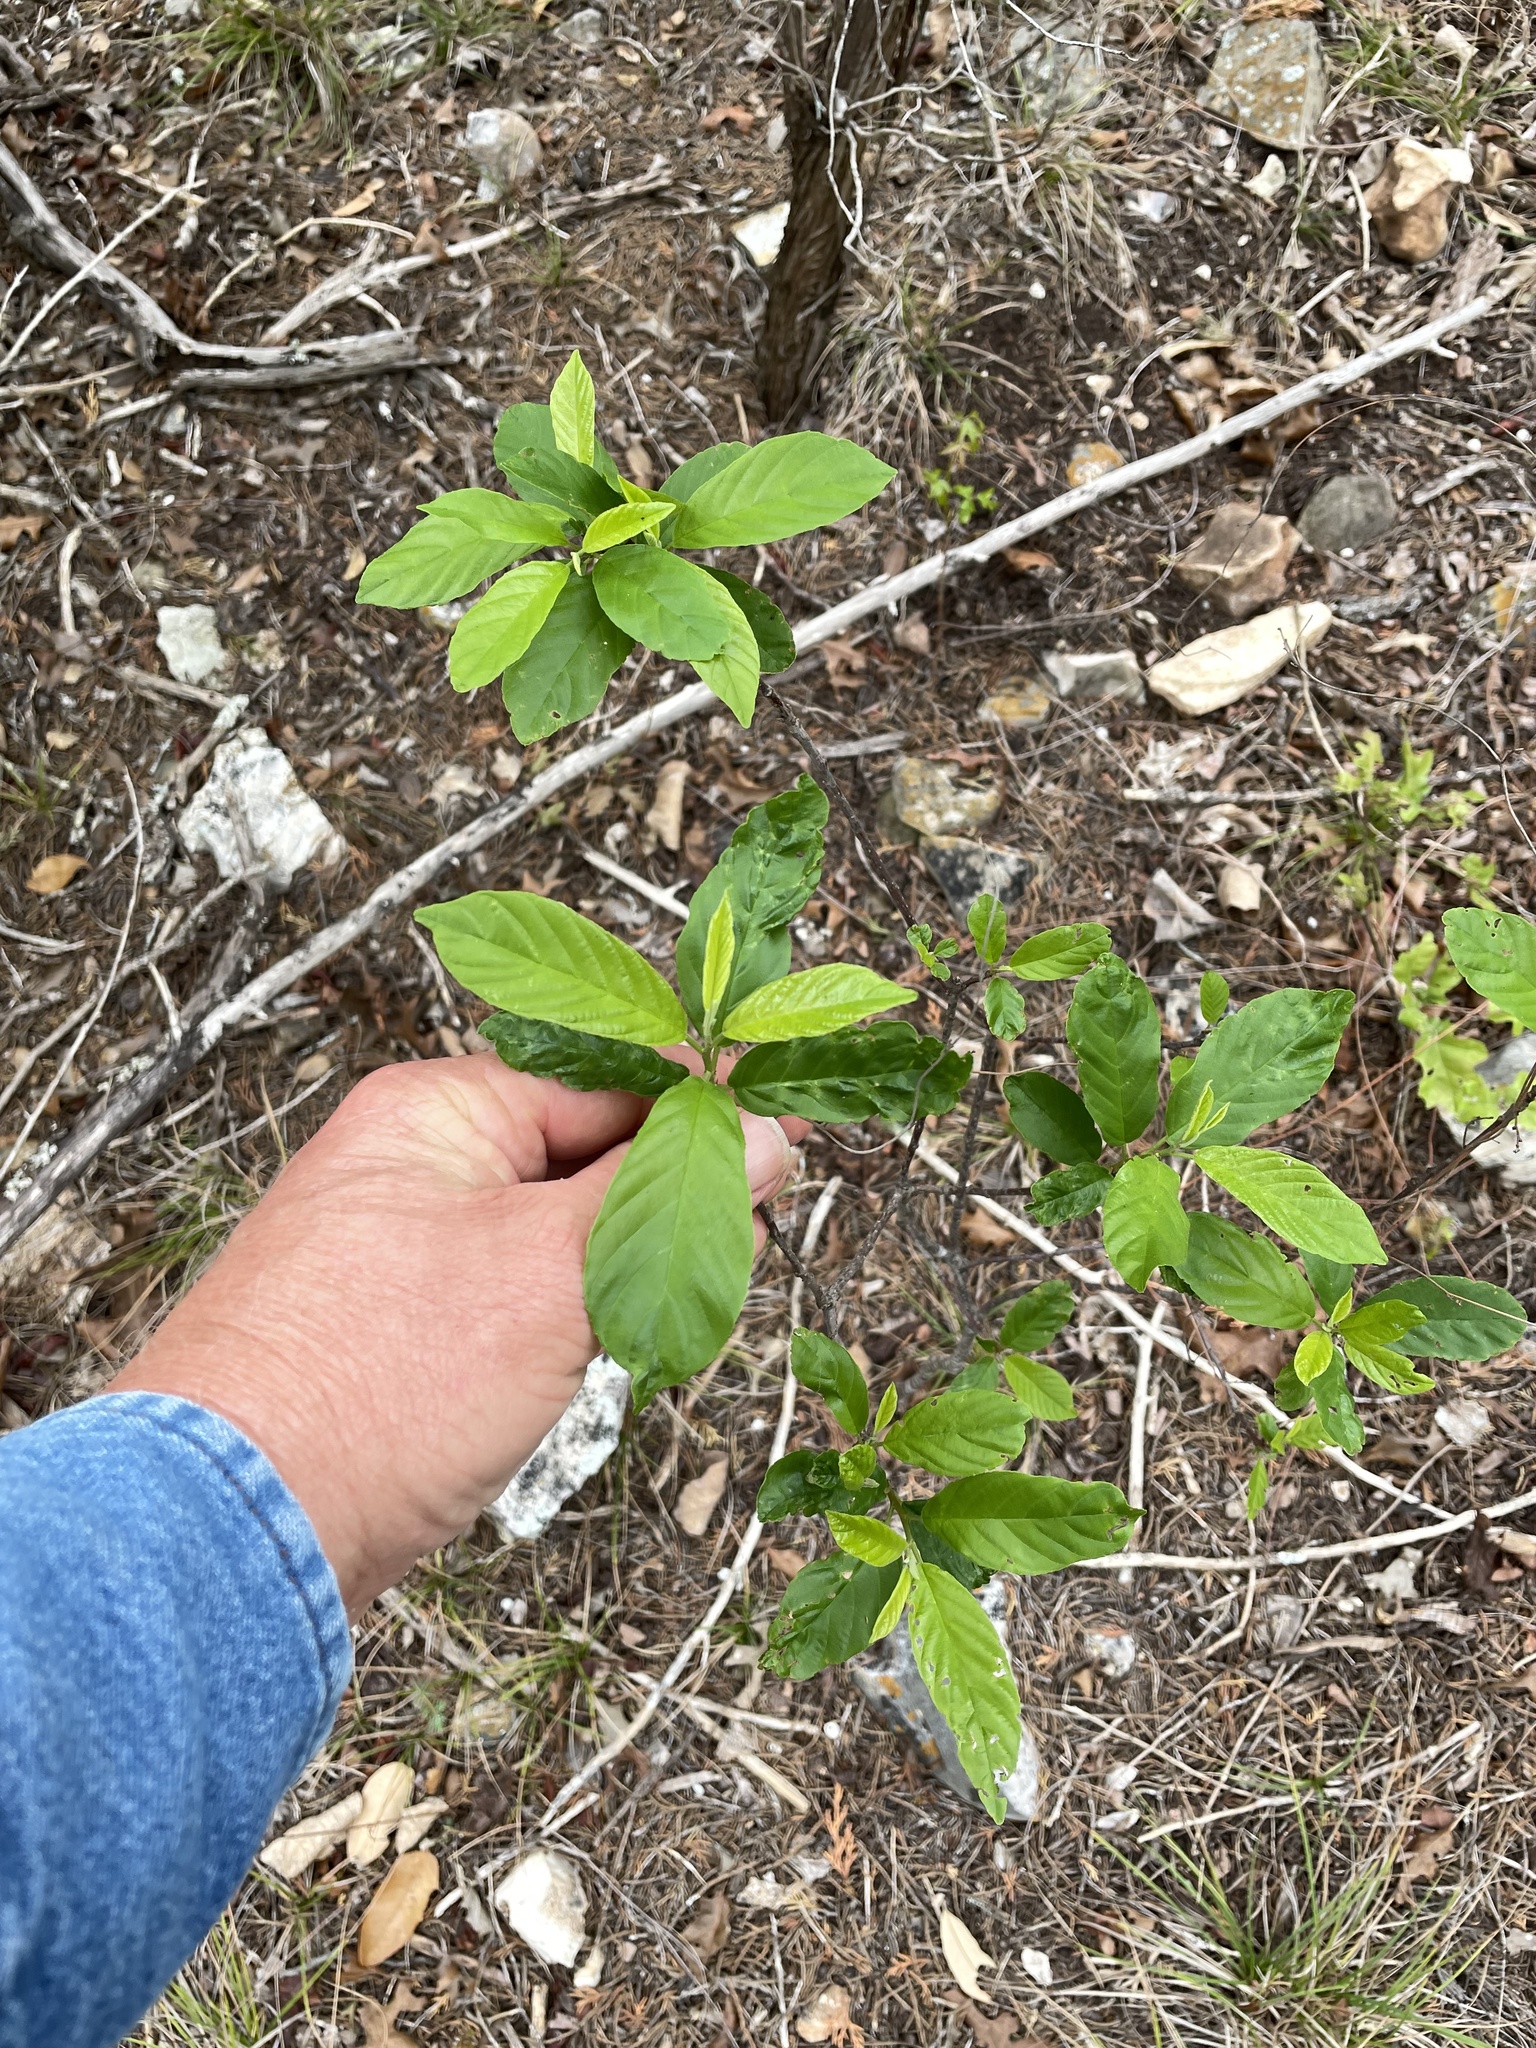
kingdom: Plantae
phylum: Tracheophyta
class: Magnoliopsida
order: Rosales
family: Rhamnaceae
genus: Frangula
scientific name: Frangula caroliniana
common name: Carolina buckthorn
